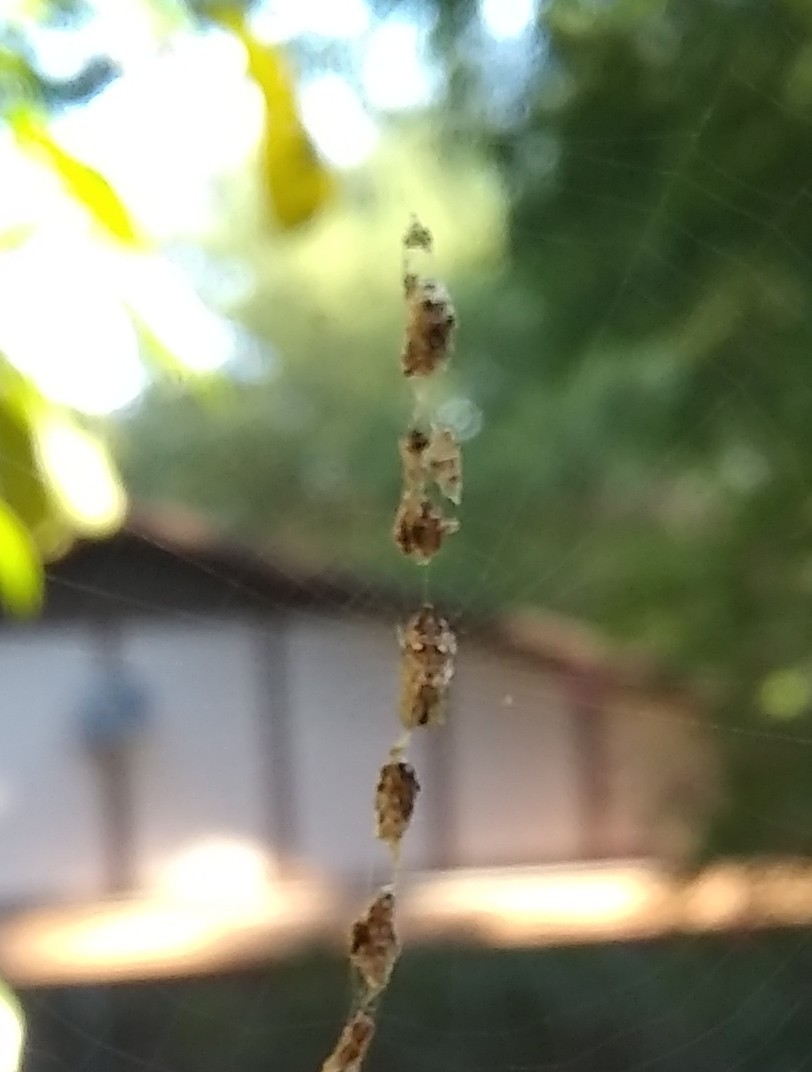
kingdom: Animalia
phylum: Arthropoda
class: Arachnida
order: Araneae
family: Araneidae
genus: Cyclosa
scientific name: Cyclosa turbinata
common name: Orb weavers
